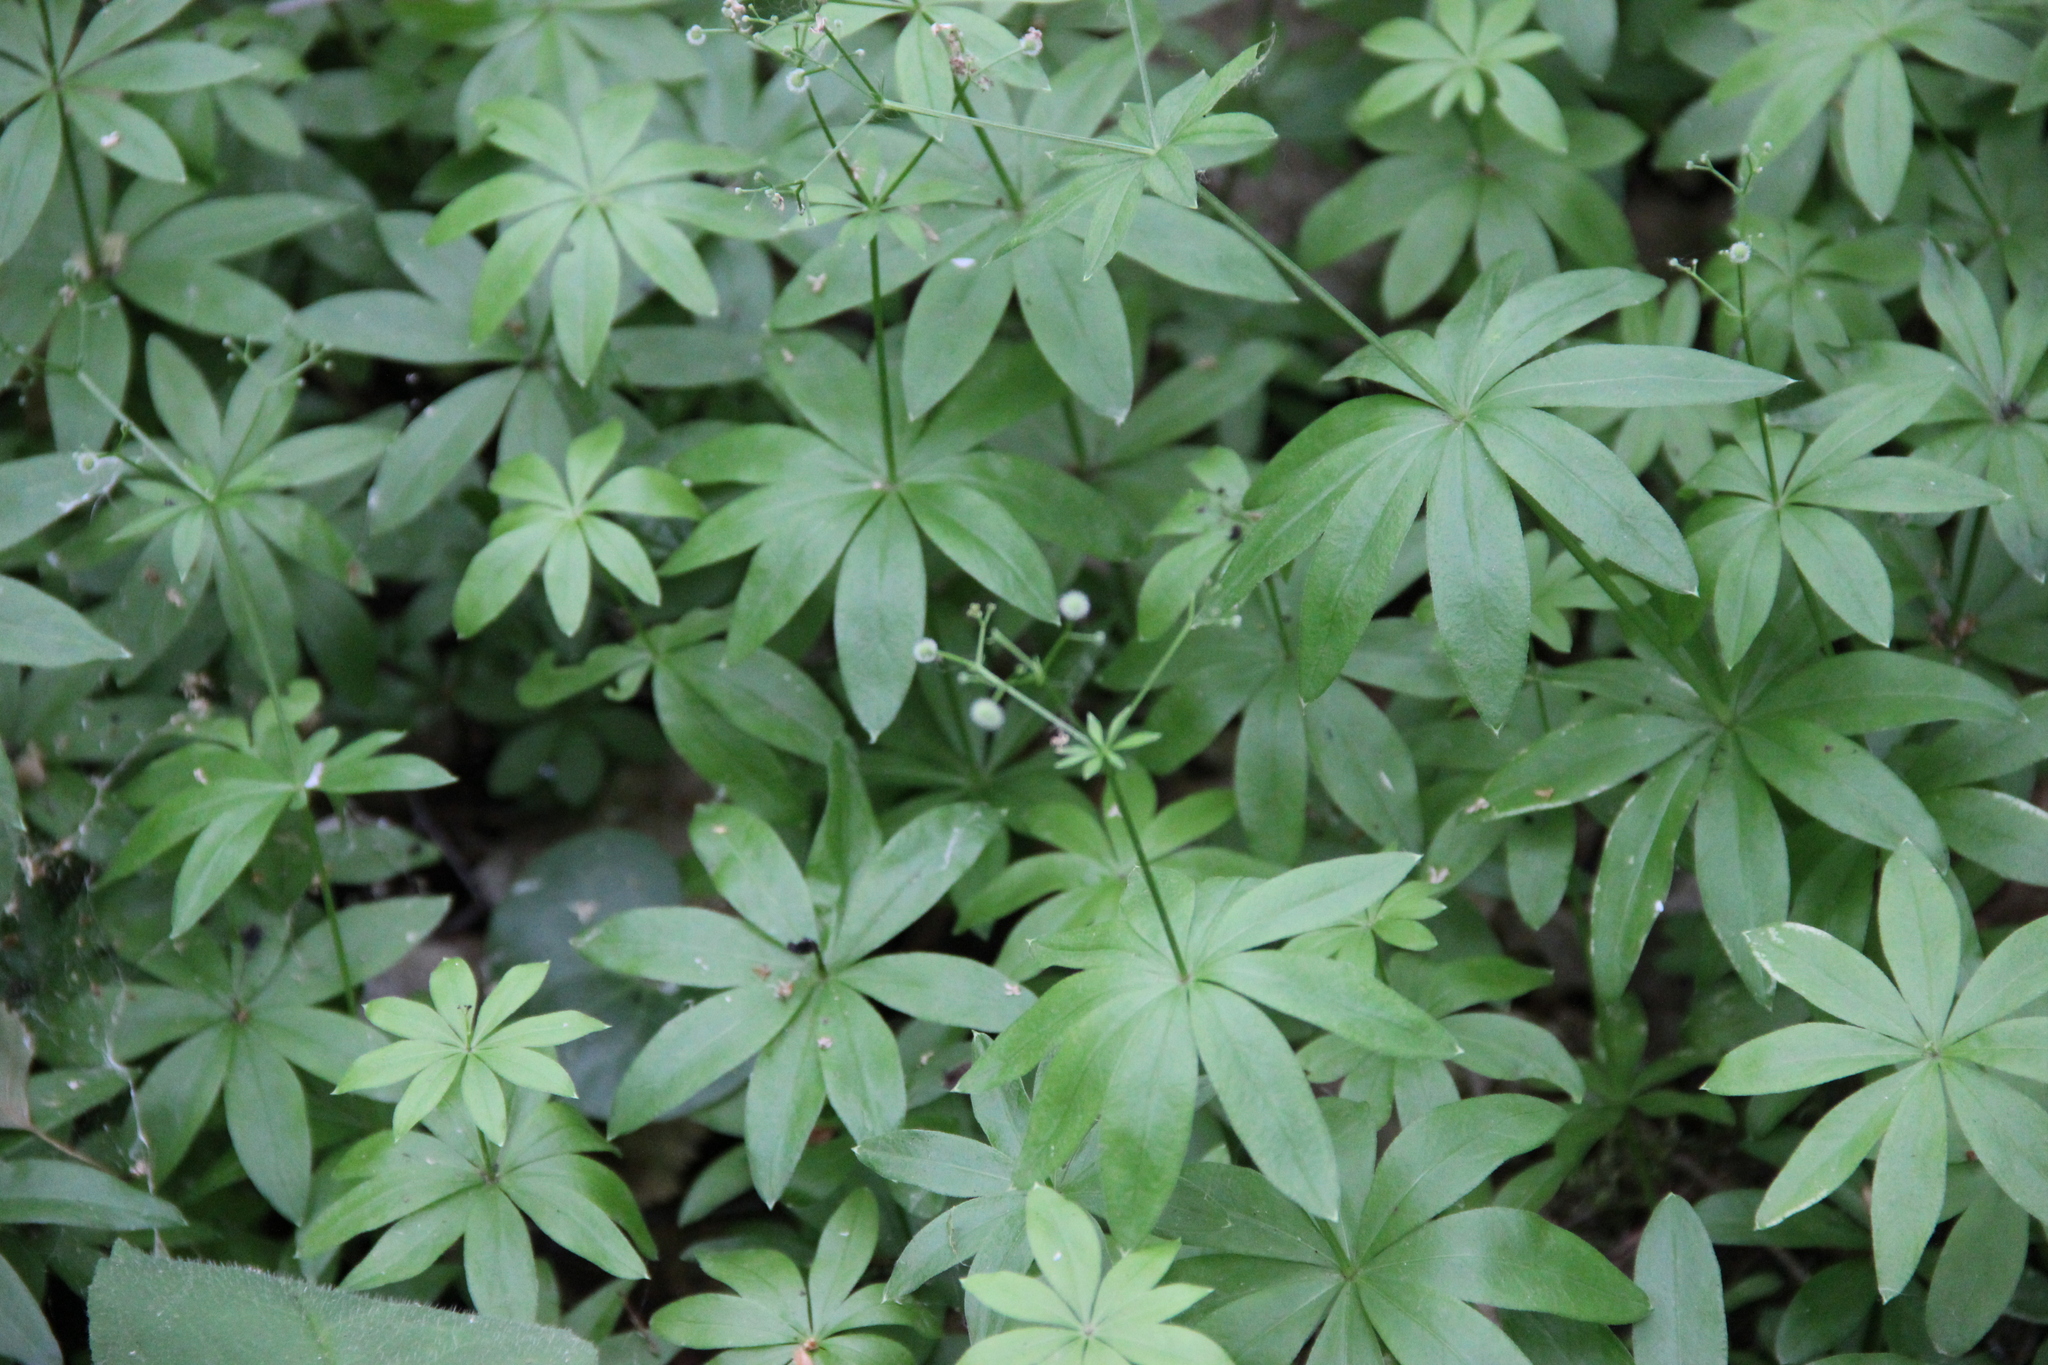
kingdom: Plantae
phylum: Tracheophyta
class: Magnoliopsida
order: Gentianales
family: Rubiaceae
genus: Galium
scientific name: Galium odoratum
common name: Sweet woodruff
